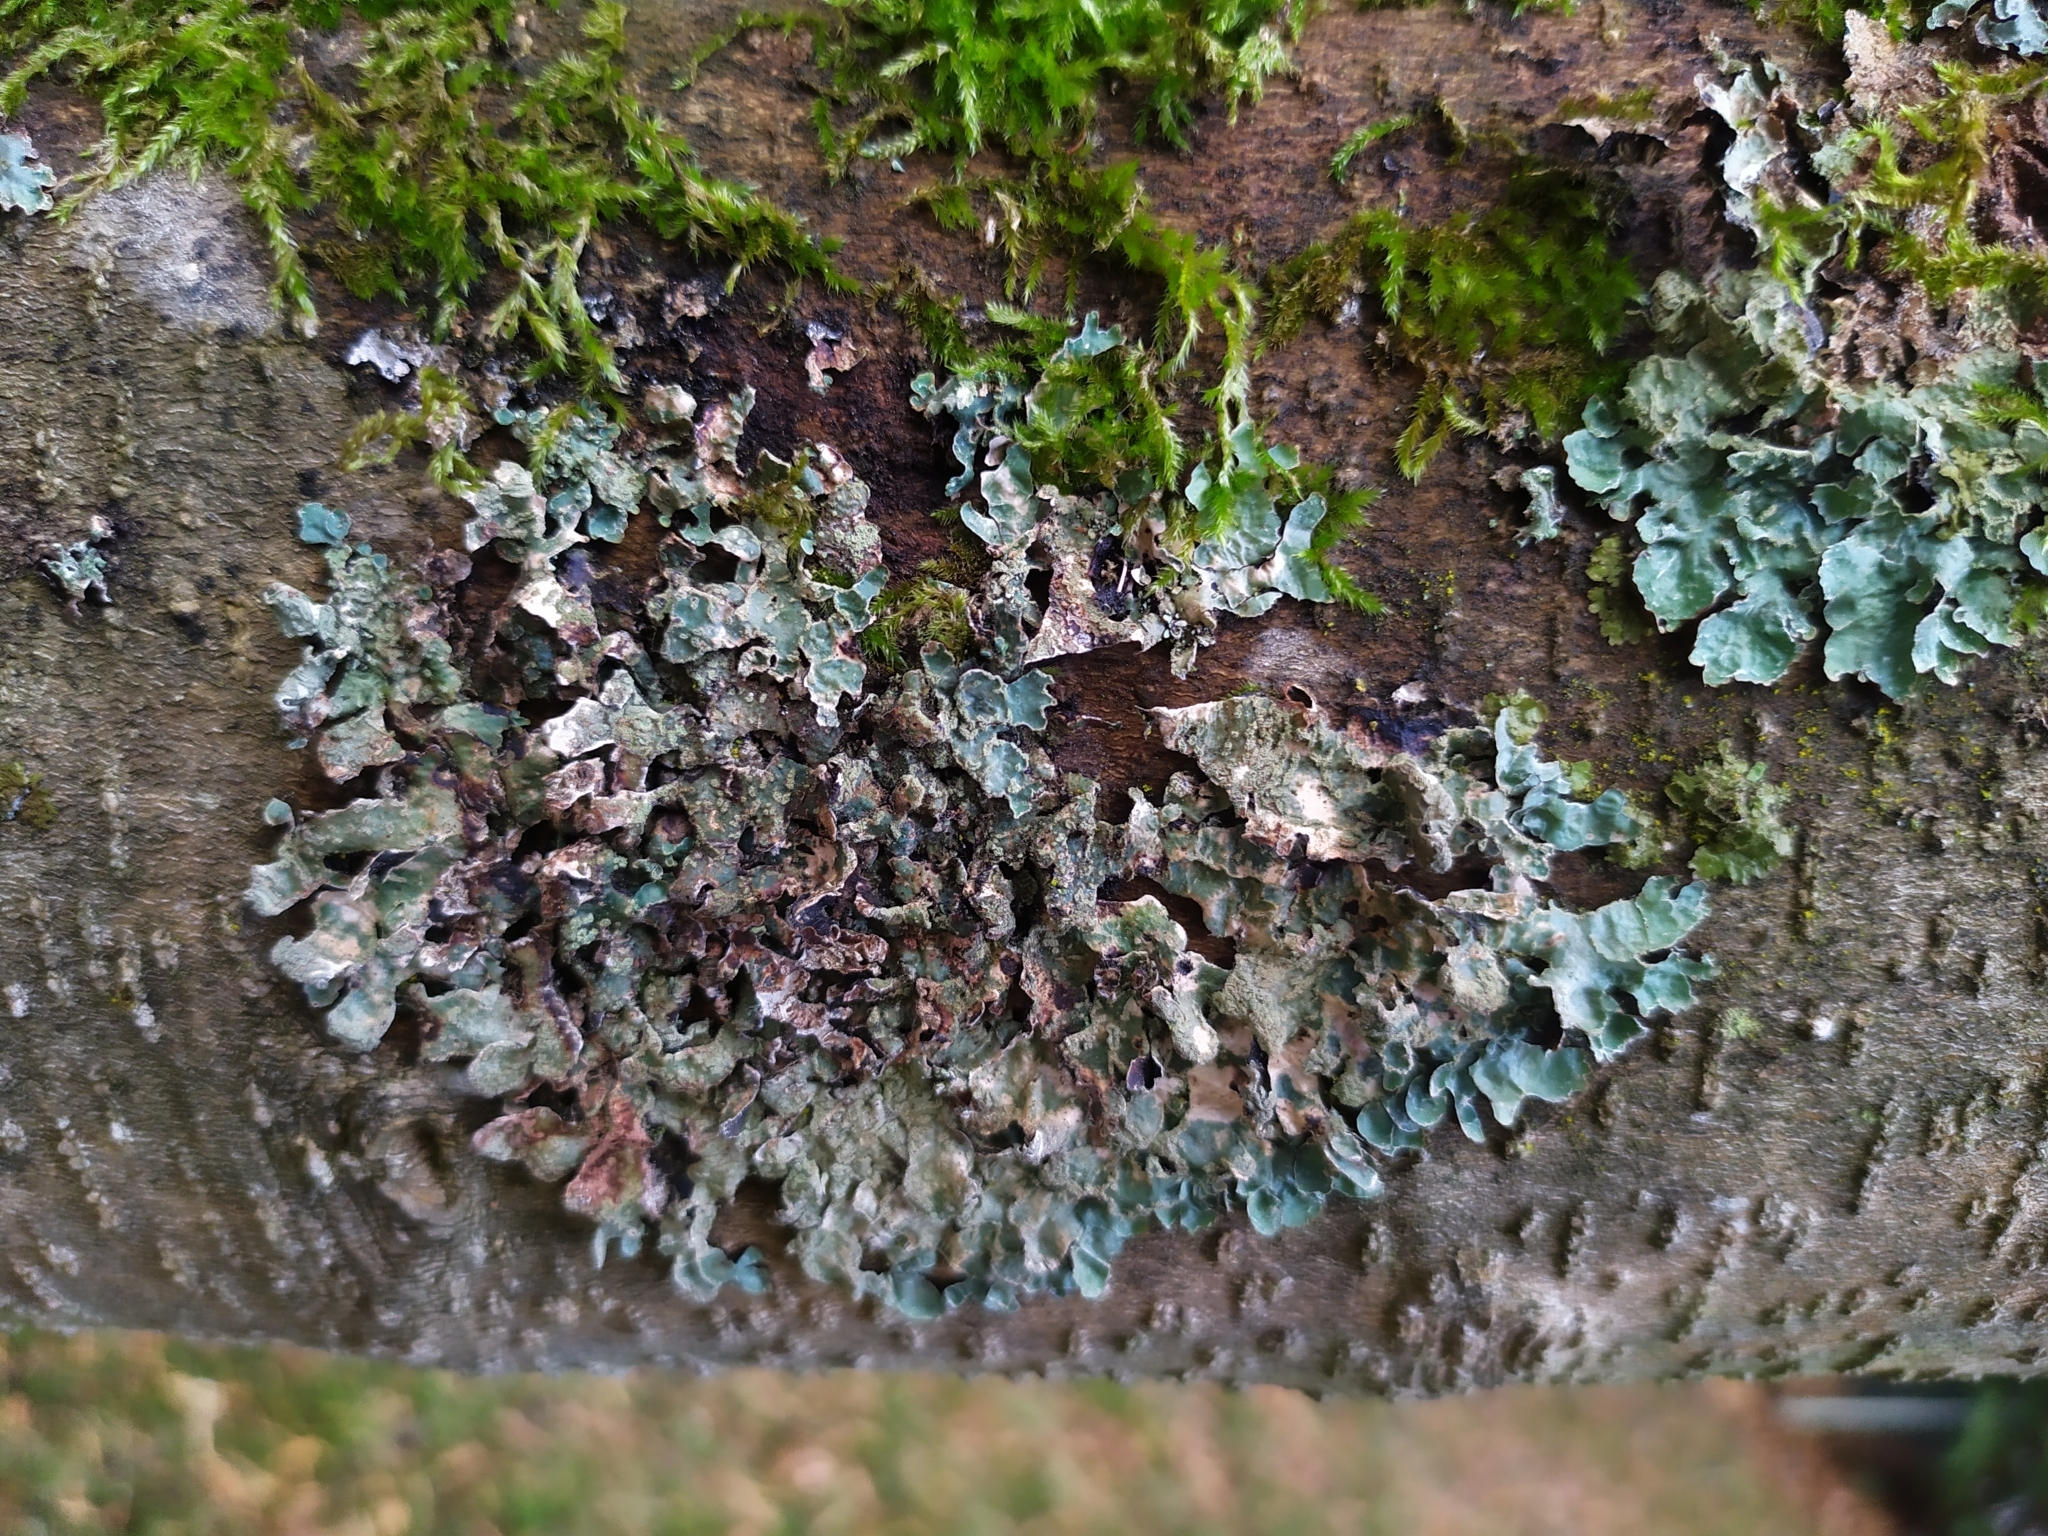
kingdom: Fungi
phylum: Ascomycota
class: Lecanoromycetes
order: Lecanorales
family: Parmeliaceae
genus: Parmelia
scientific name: Parmelia sulcata
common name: Netted shield lichen
